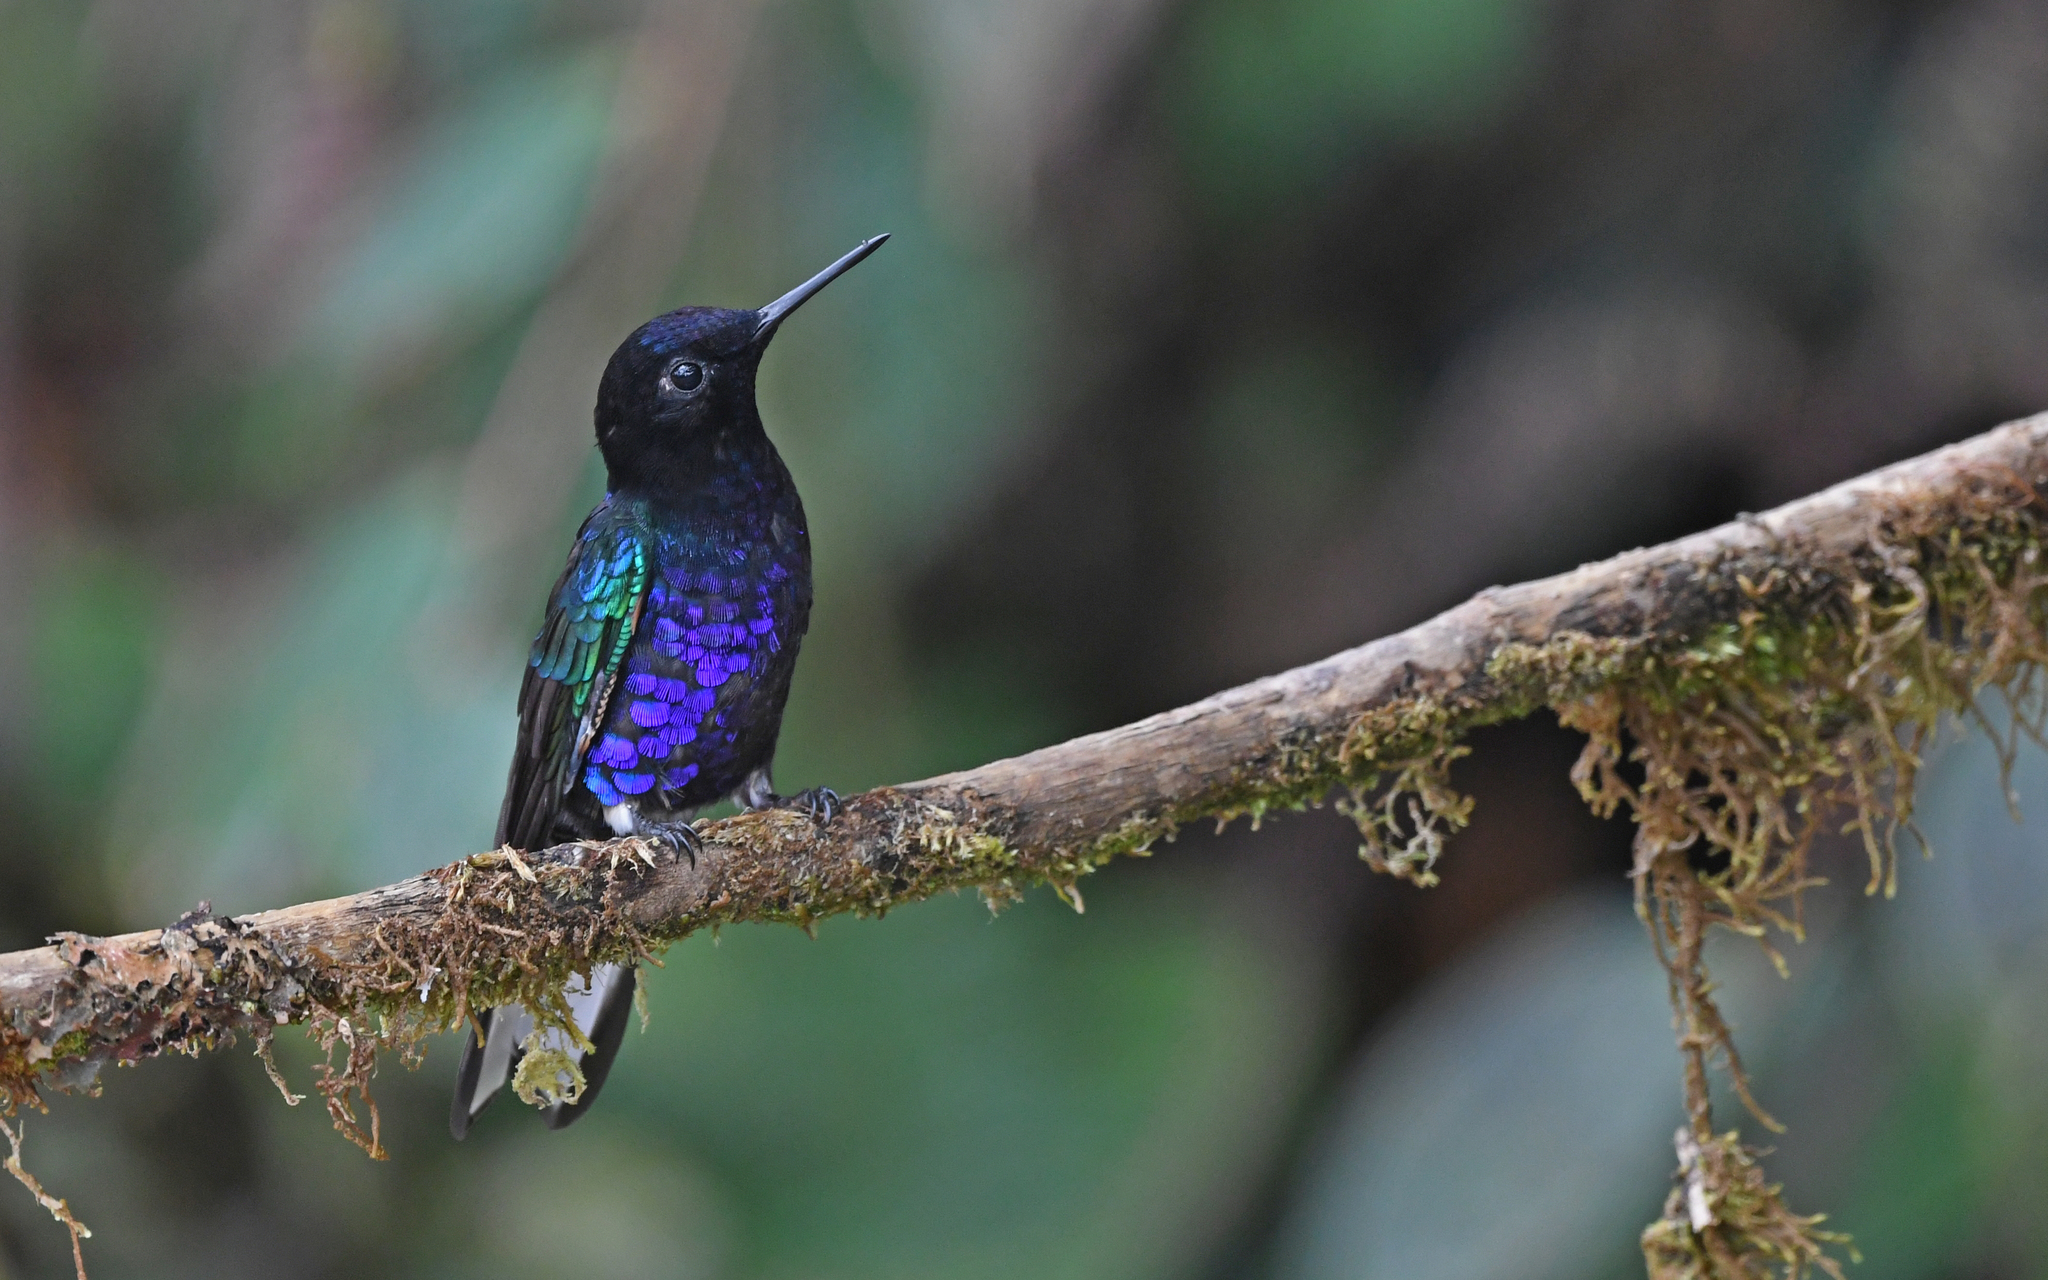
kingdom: Animalia
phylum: Chordata
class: Aves
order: Apodiformes
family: Trochilidae
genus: Boissonneaua
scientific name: Boissonneaua jardini
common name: Velvet-purple coronet
